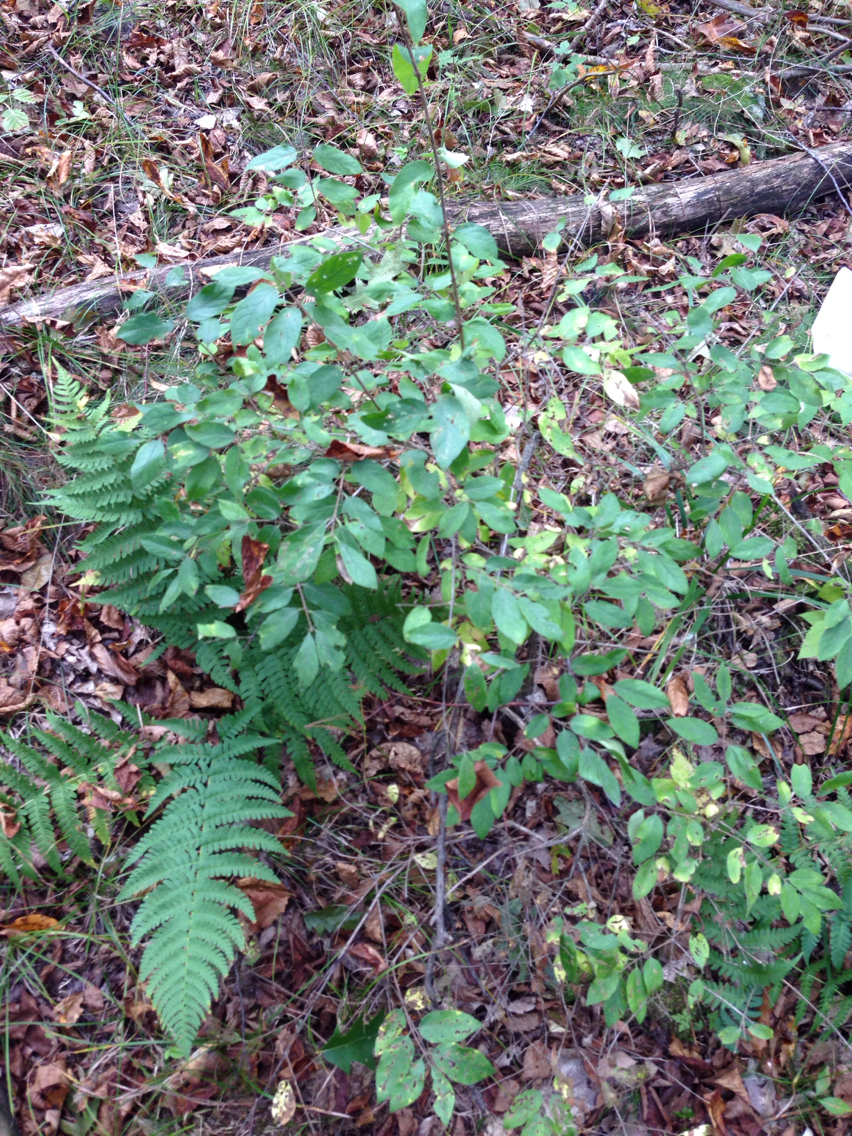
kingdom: Plantae
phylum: Tracheophyta
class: Magnoliopsida
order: Dipsacales
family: Caprifoliaceae
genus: Lonicera
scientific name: Lonicera morrowii
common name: Morrow's honeysuckle
